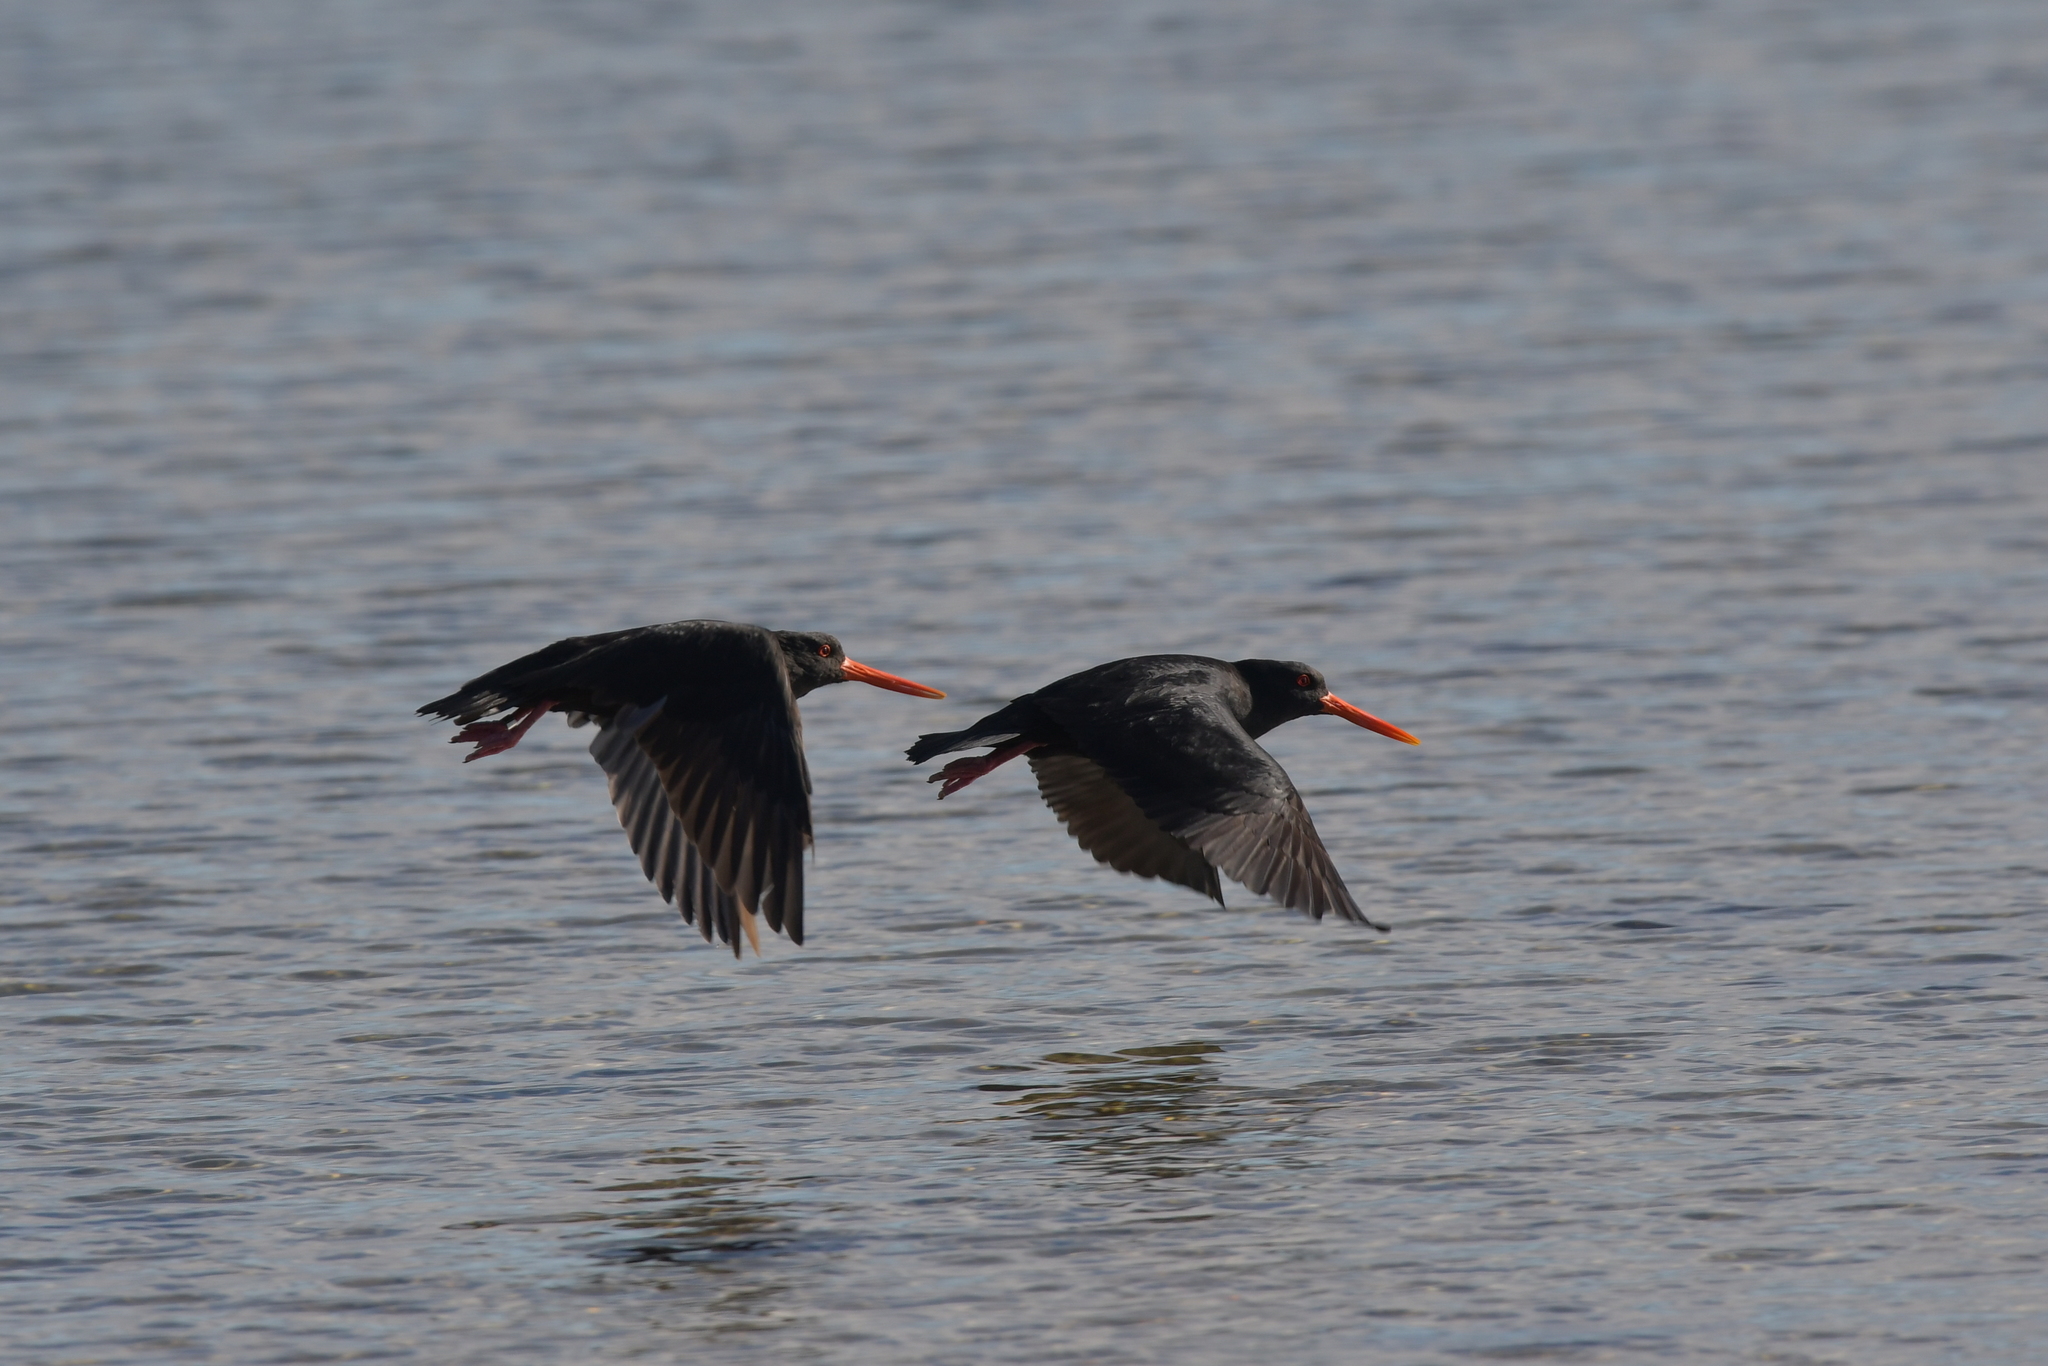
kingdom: Animalia
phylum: Chordata
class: Aves
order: Charadriiformes
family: Haematopodidae
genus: Haematopus
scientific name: Haematopus unicolor
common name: Variable oystercatcher
